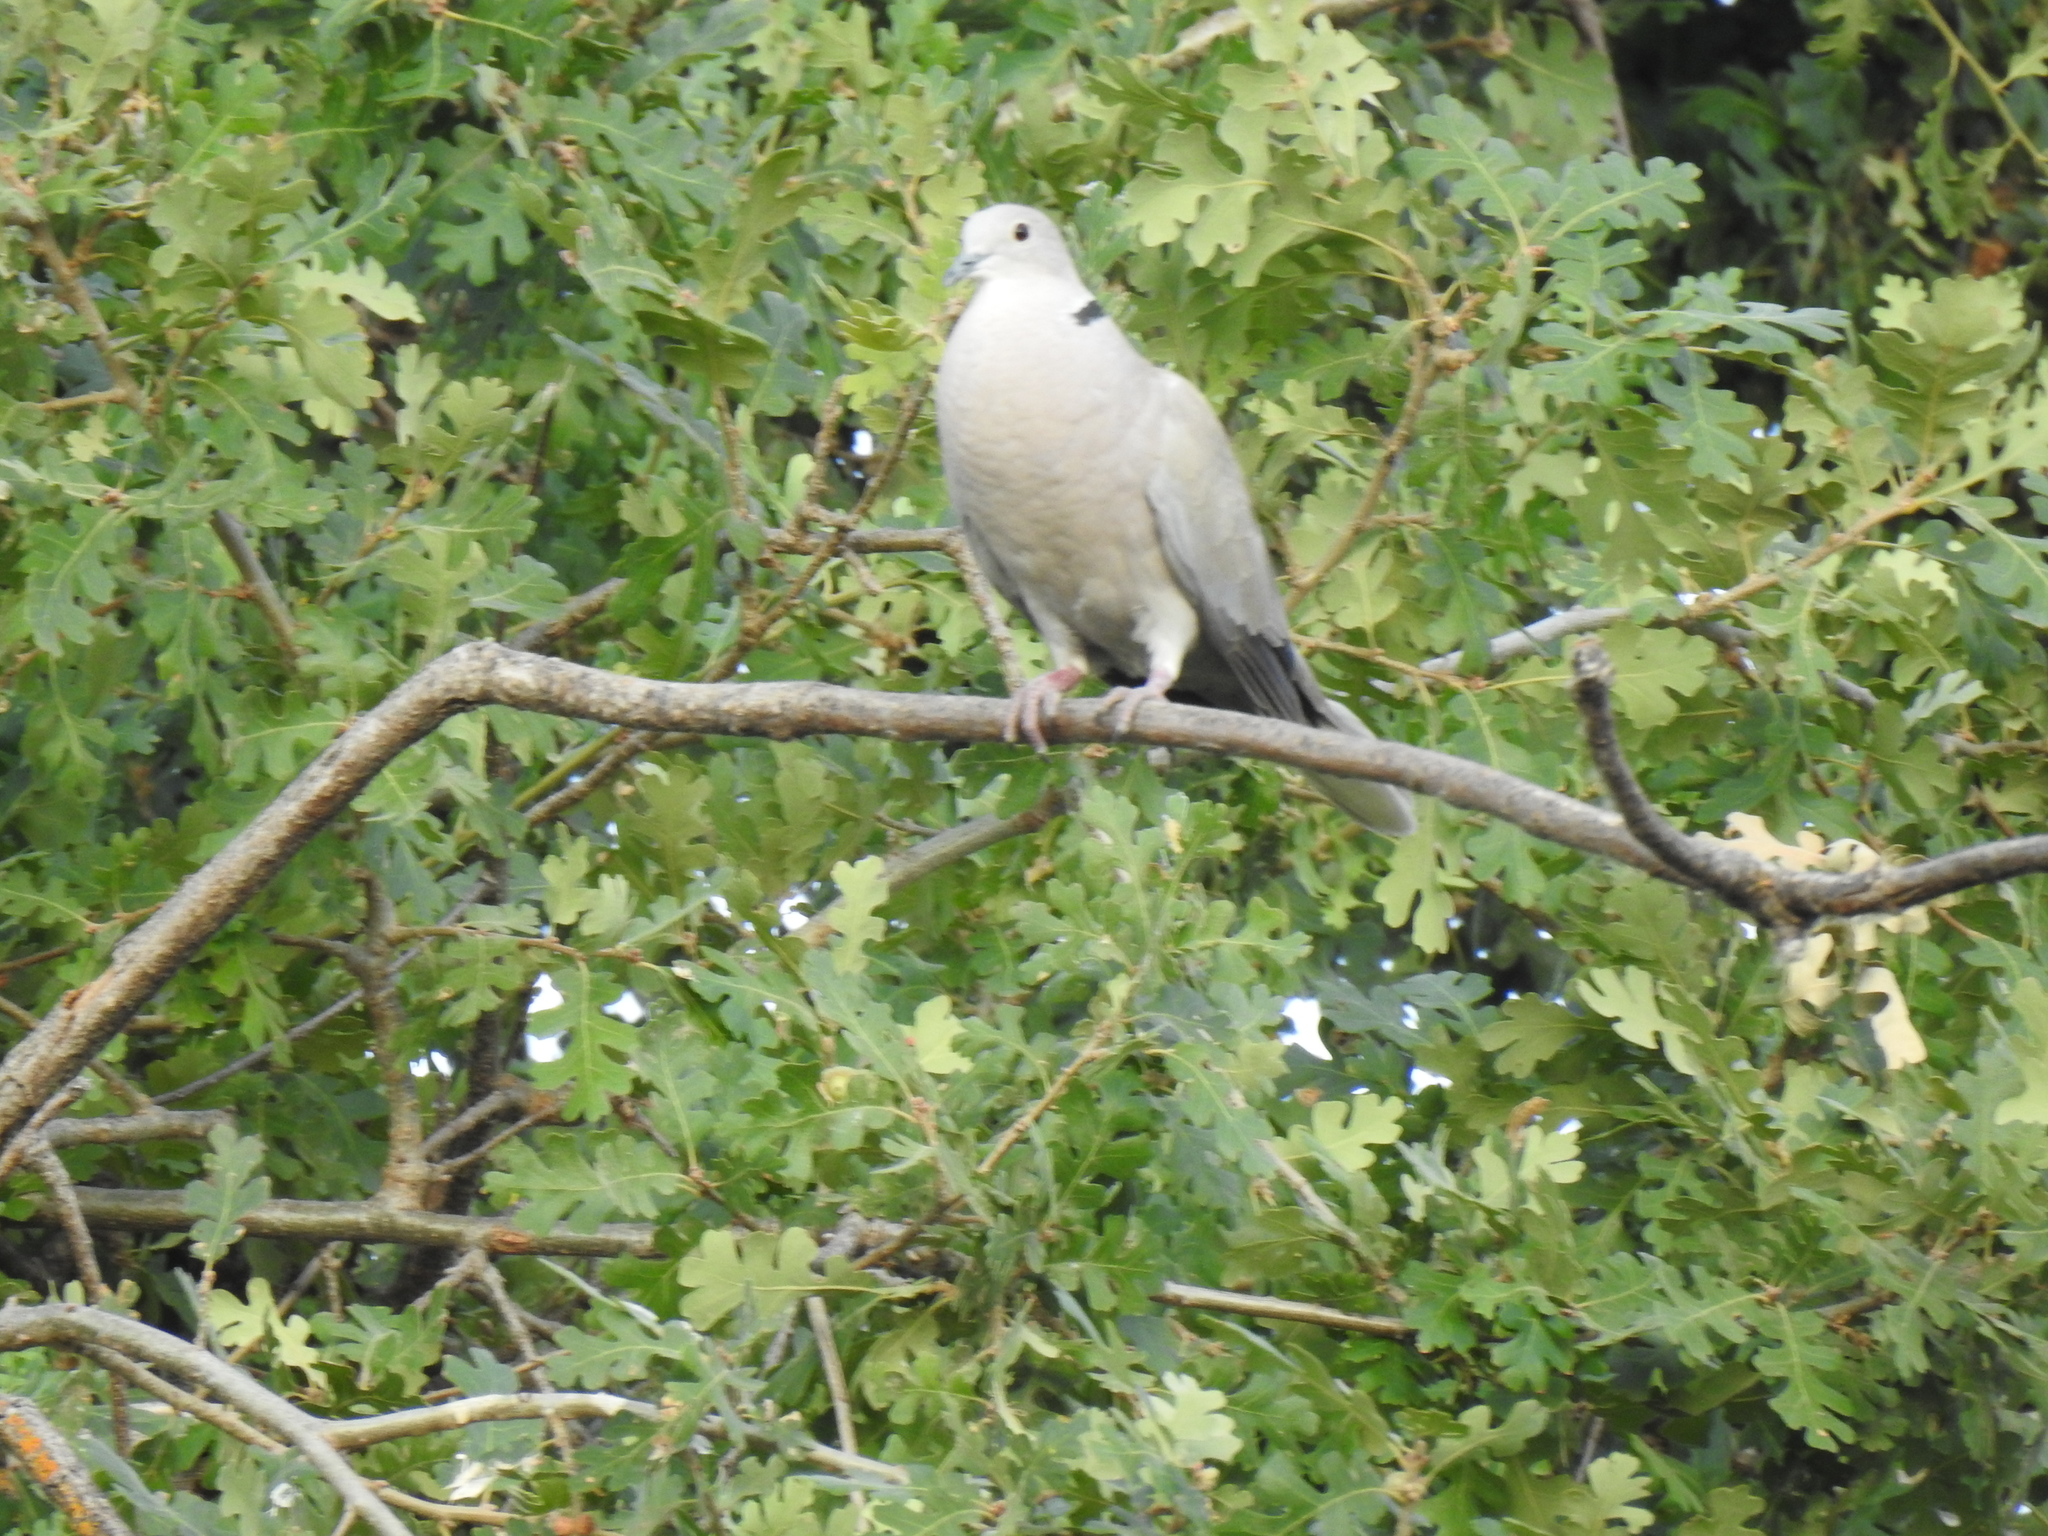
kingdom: Animalia
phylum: Chordata
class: Aves
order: Columbiformes
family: Columbidae
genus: Streptopelia
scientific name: Streptopelia decaocto
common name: Eurasian collared dove
